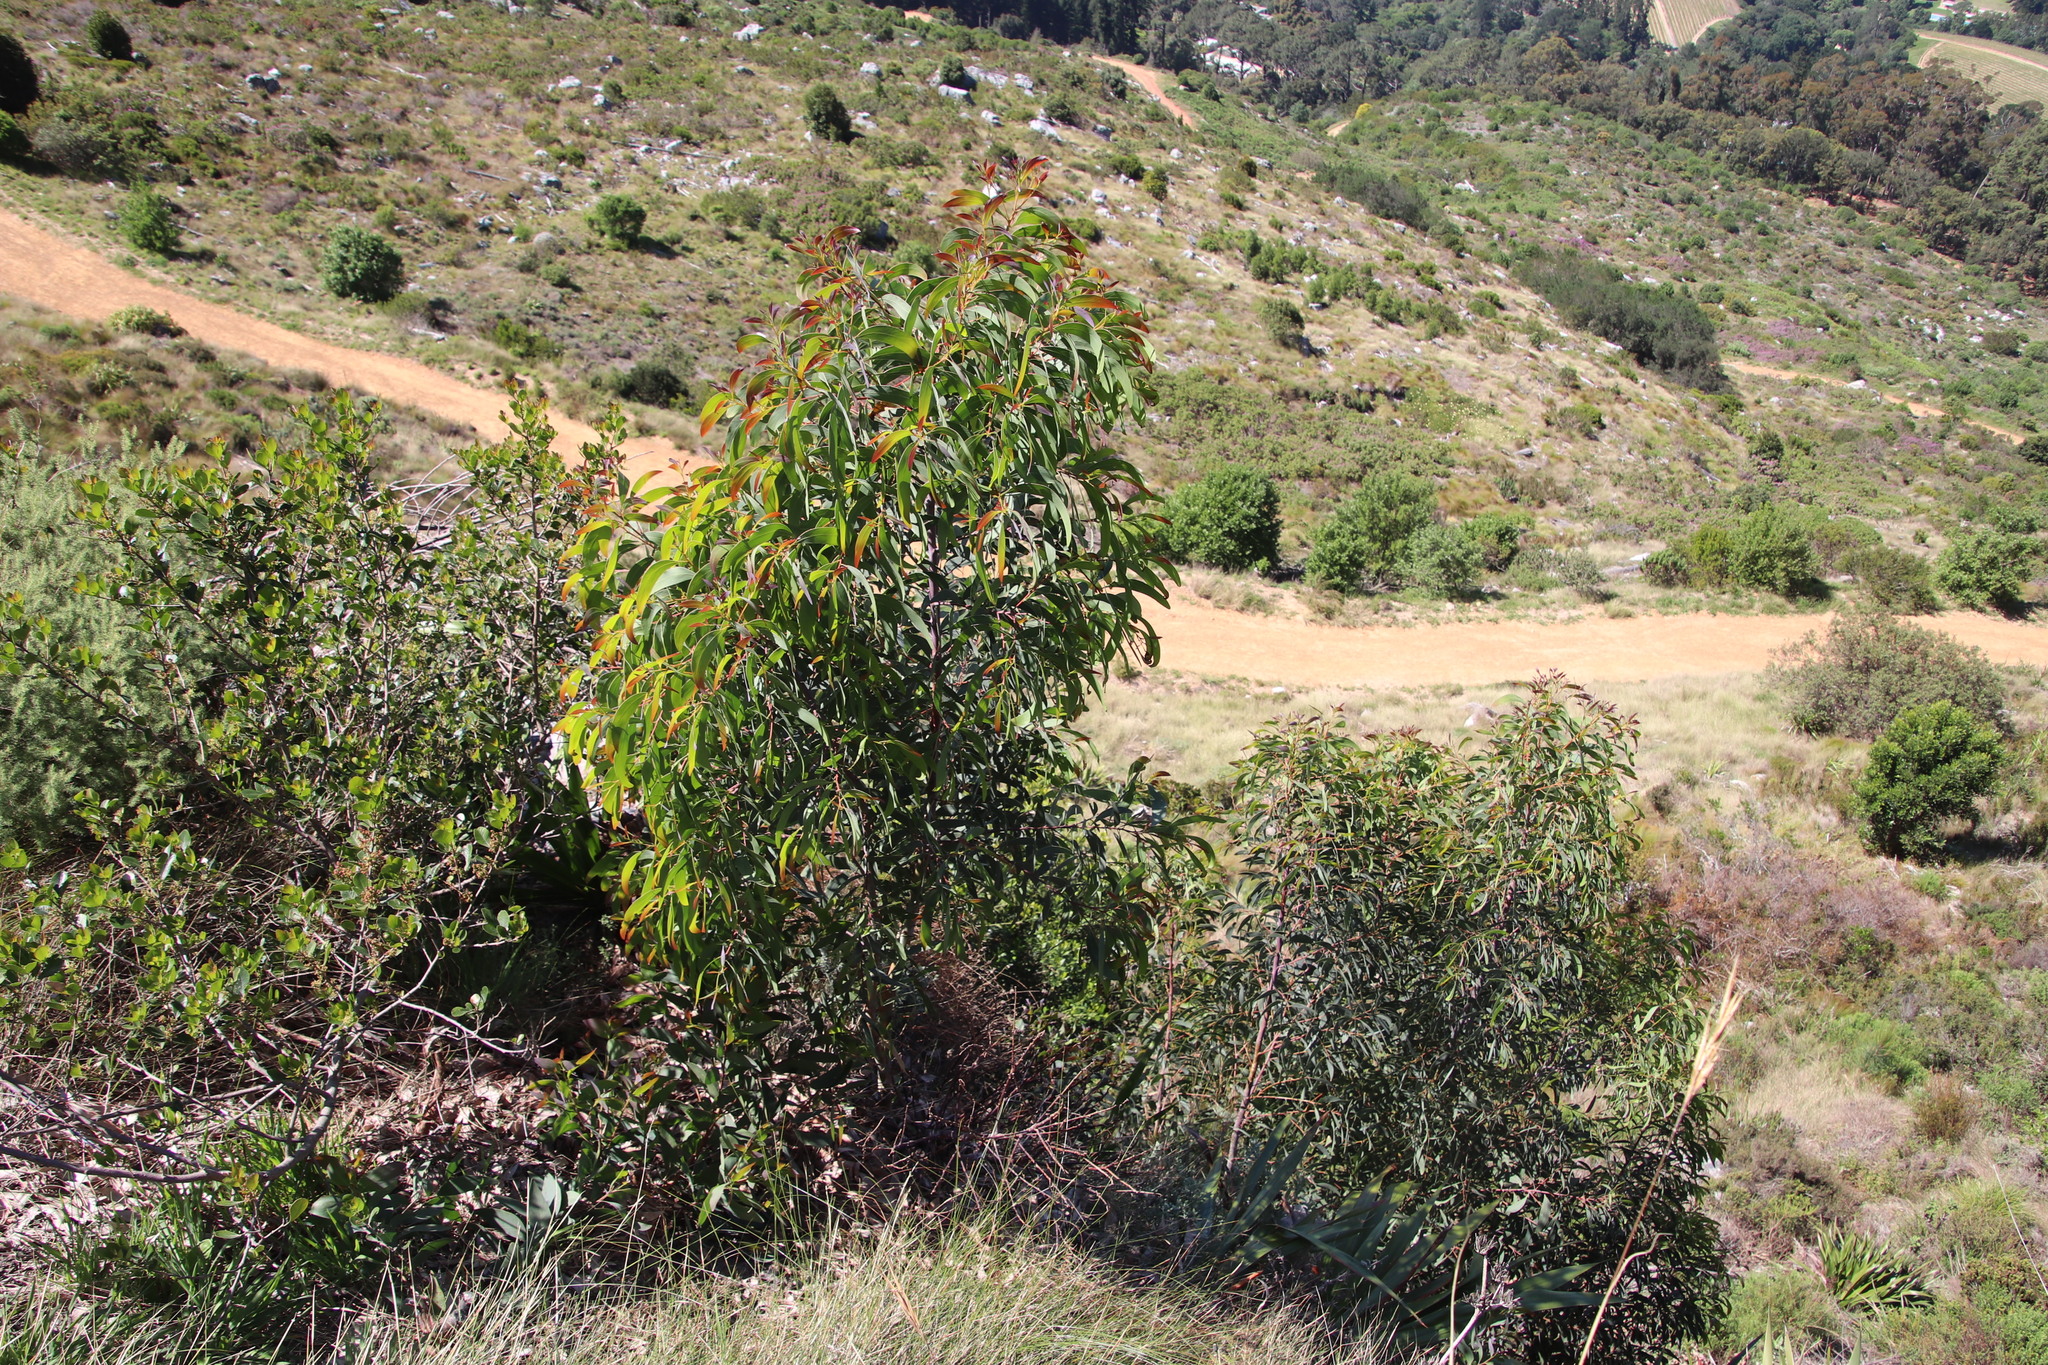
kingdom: Plantae
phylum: Tracheophyta
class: Magnoliopsida
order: Fabales
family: Fabaceae
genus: Acacia
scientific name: Acacia falciformis
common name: Tanning wattle
